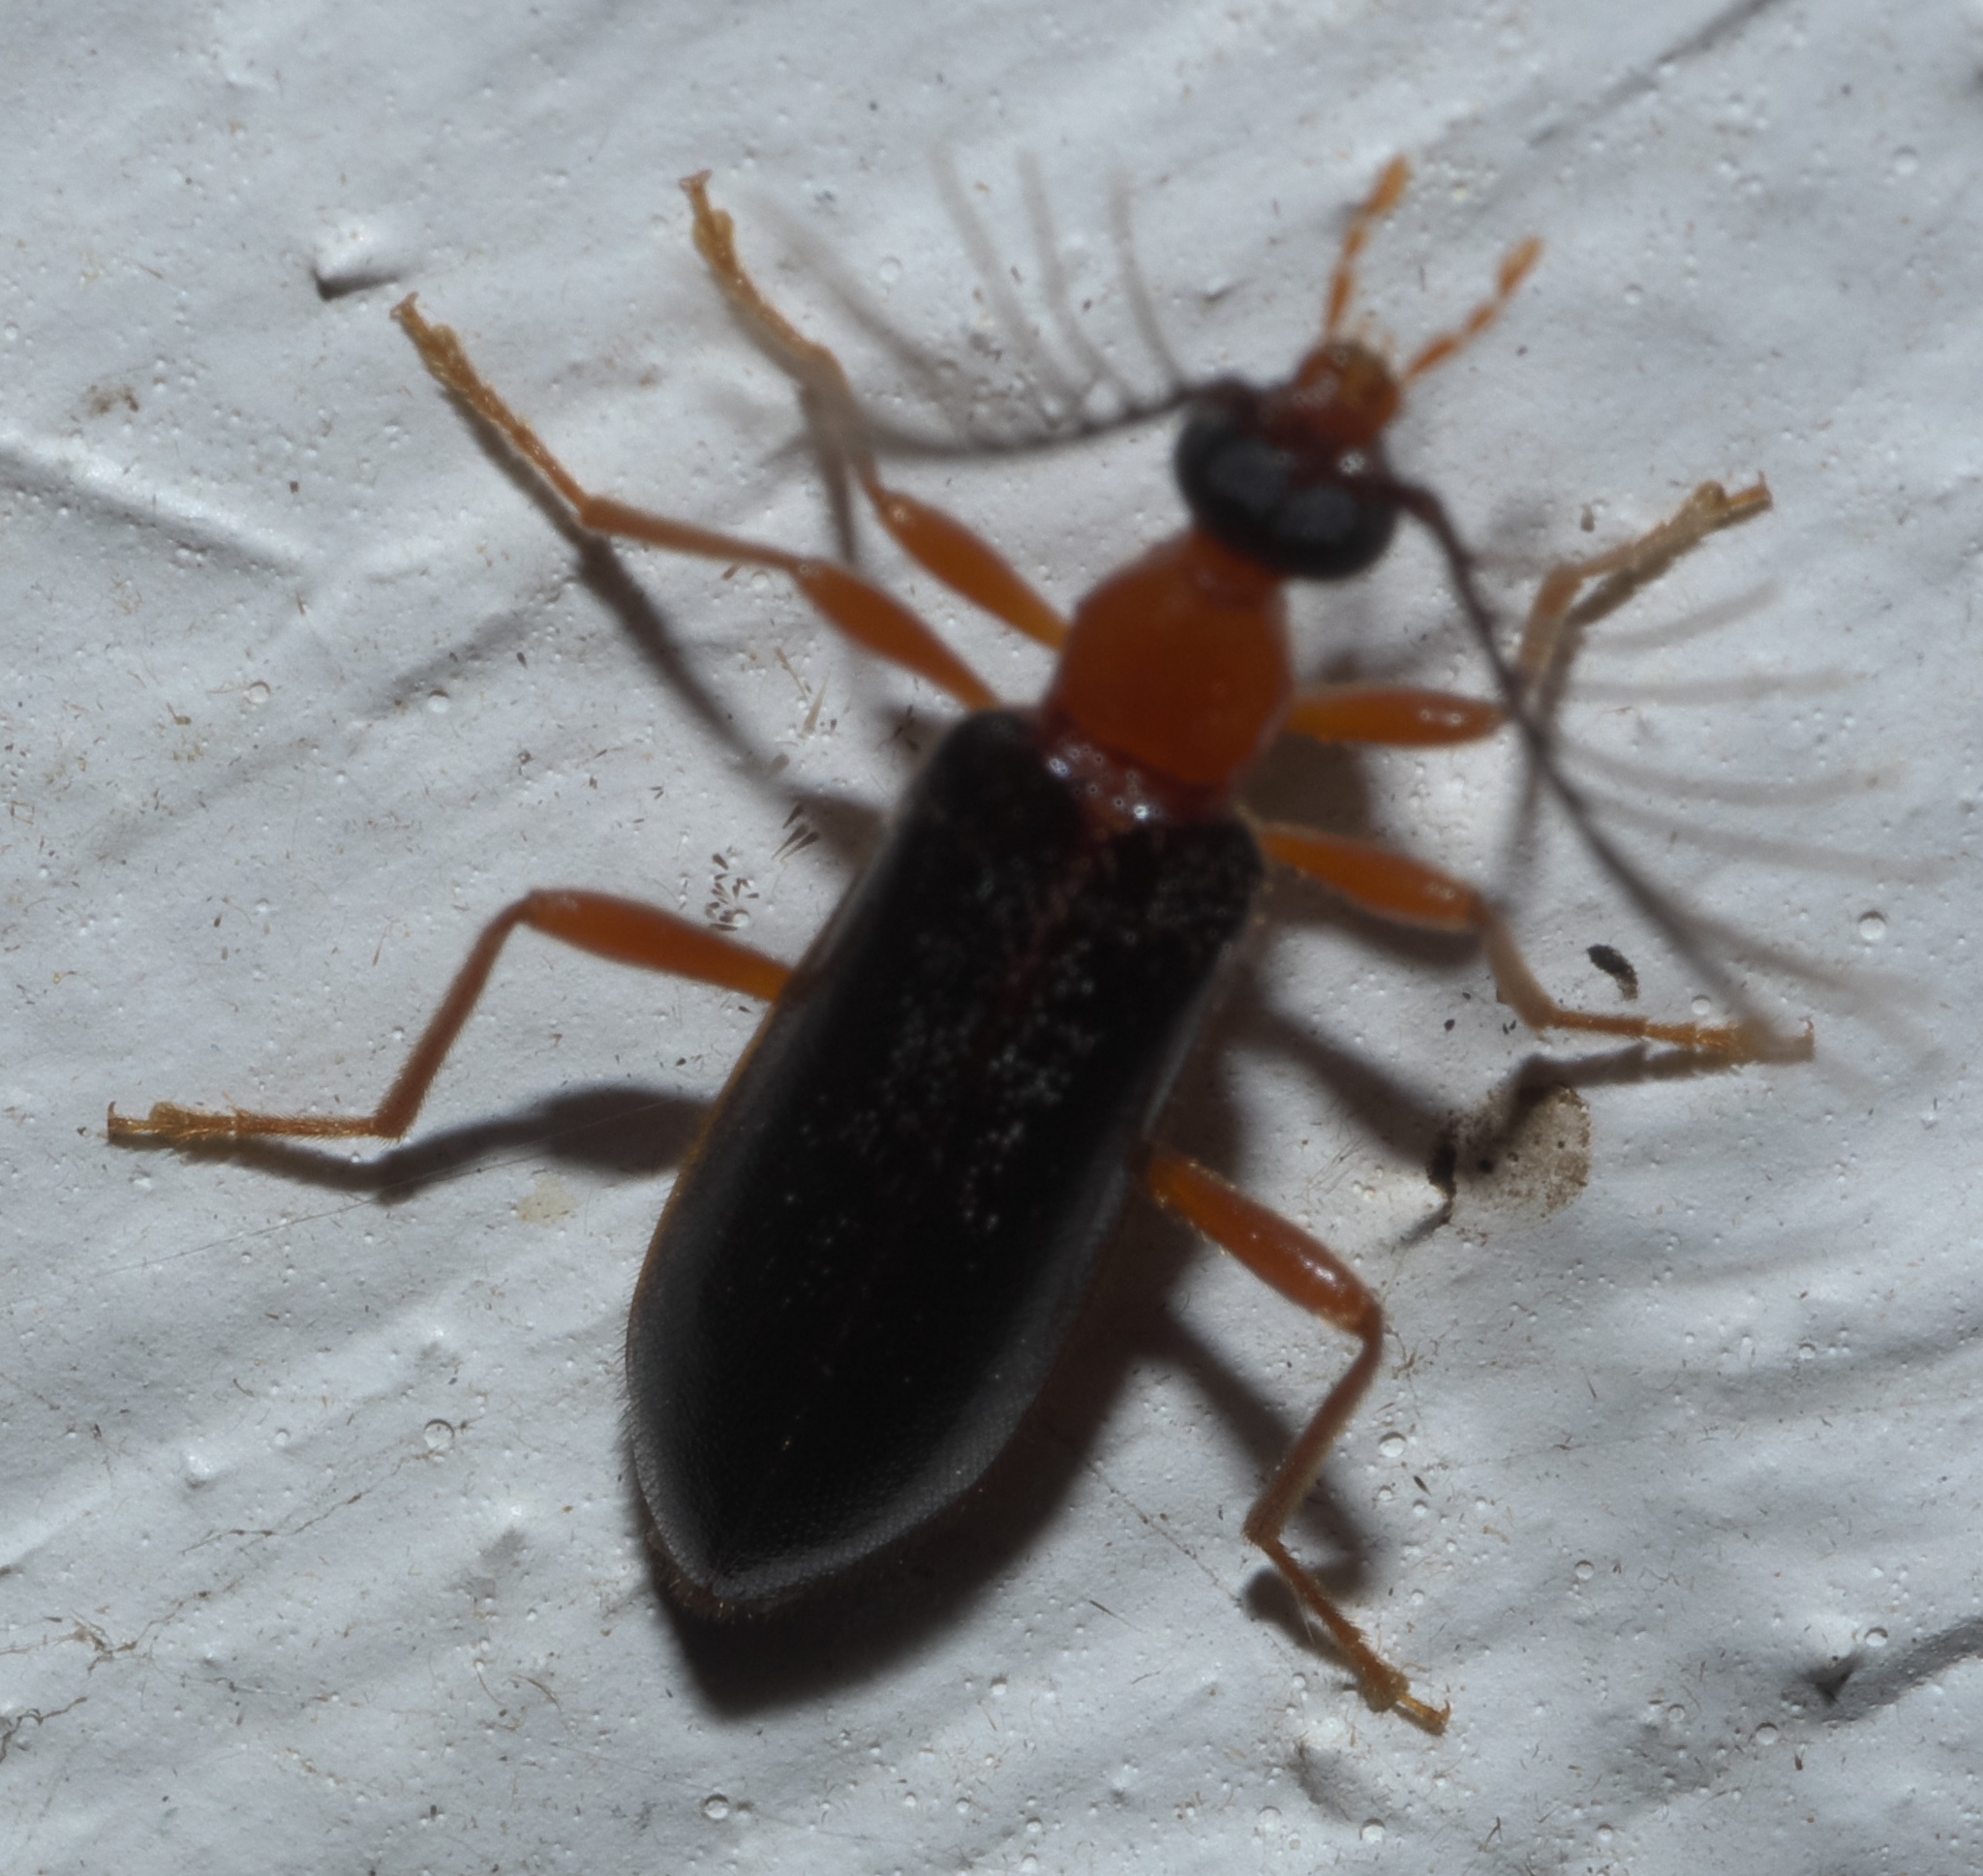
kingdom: Animalia
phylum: Arthropoda
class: Insecta
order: Coleoptera
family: Pyrochroidae
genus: Dendroides
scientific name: Dendroides canadensis
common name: Canada fire-colored beetle
